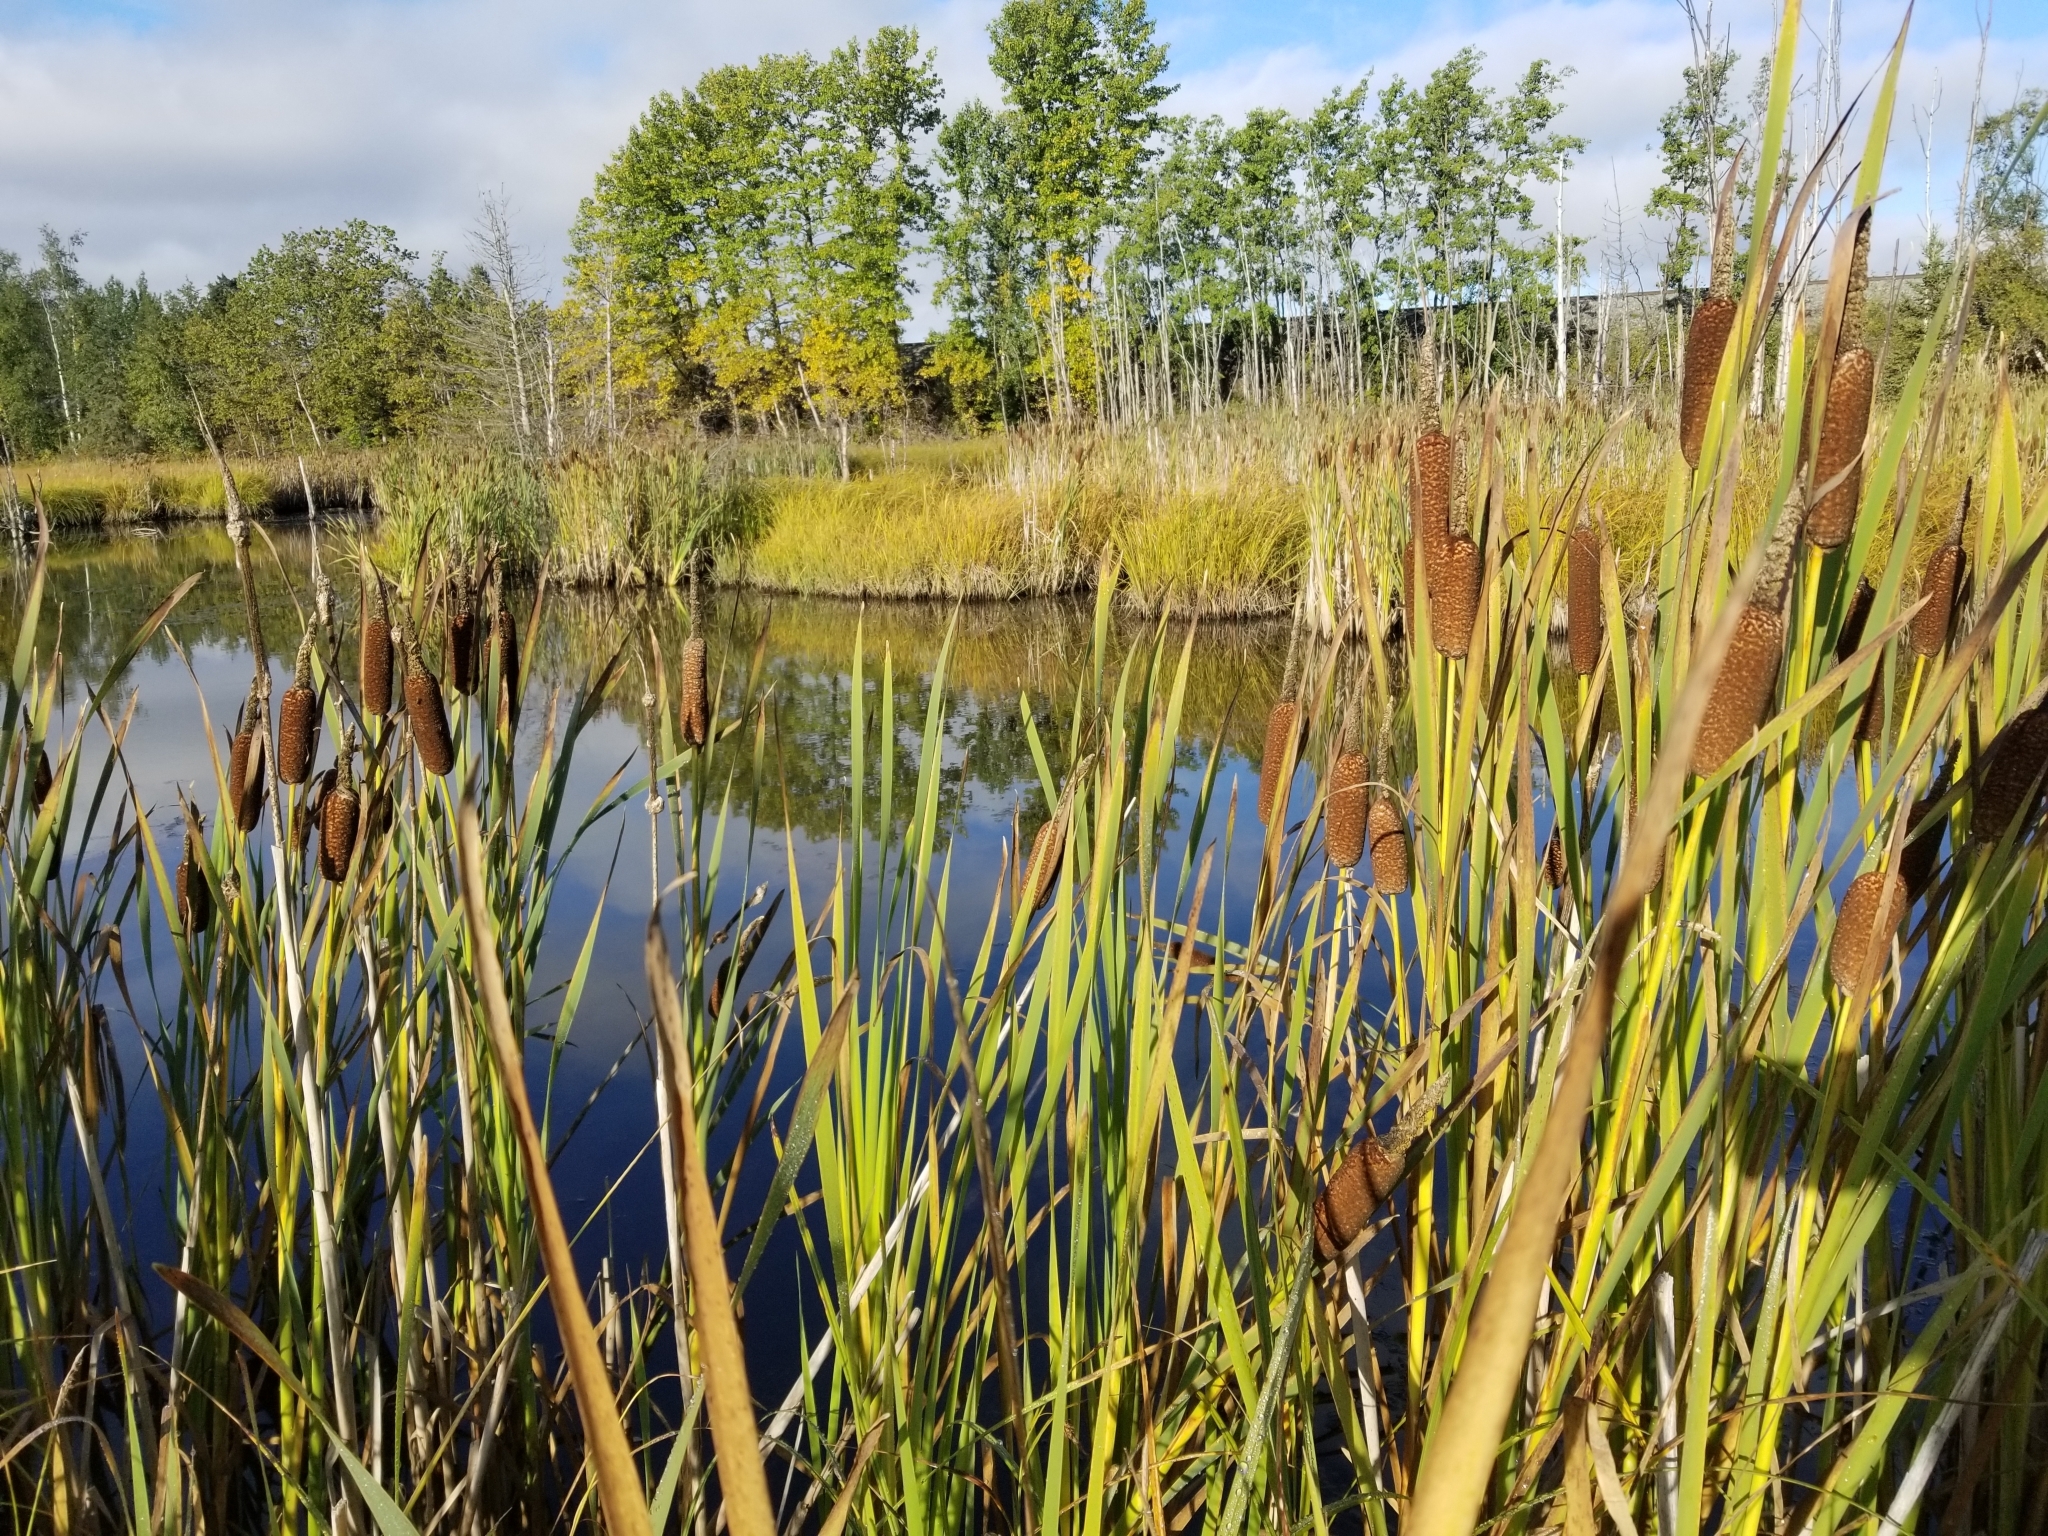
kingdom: Plantae
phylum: Tracheophyta
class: Liliopsida
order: Poales
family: Typhaceae
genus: Typha
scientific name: Typha latifolia
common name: Broadleaf cattail
